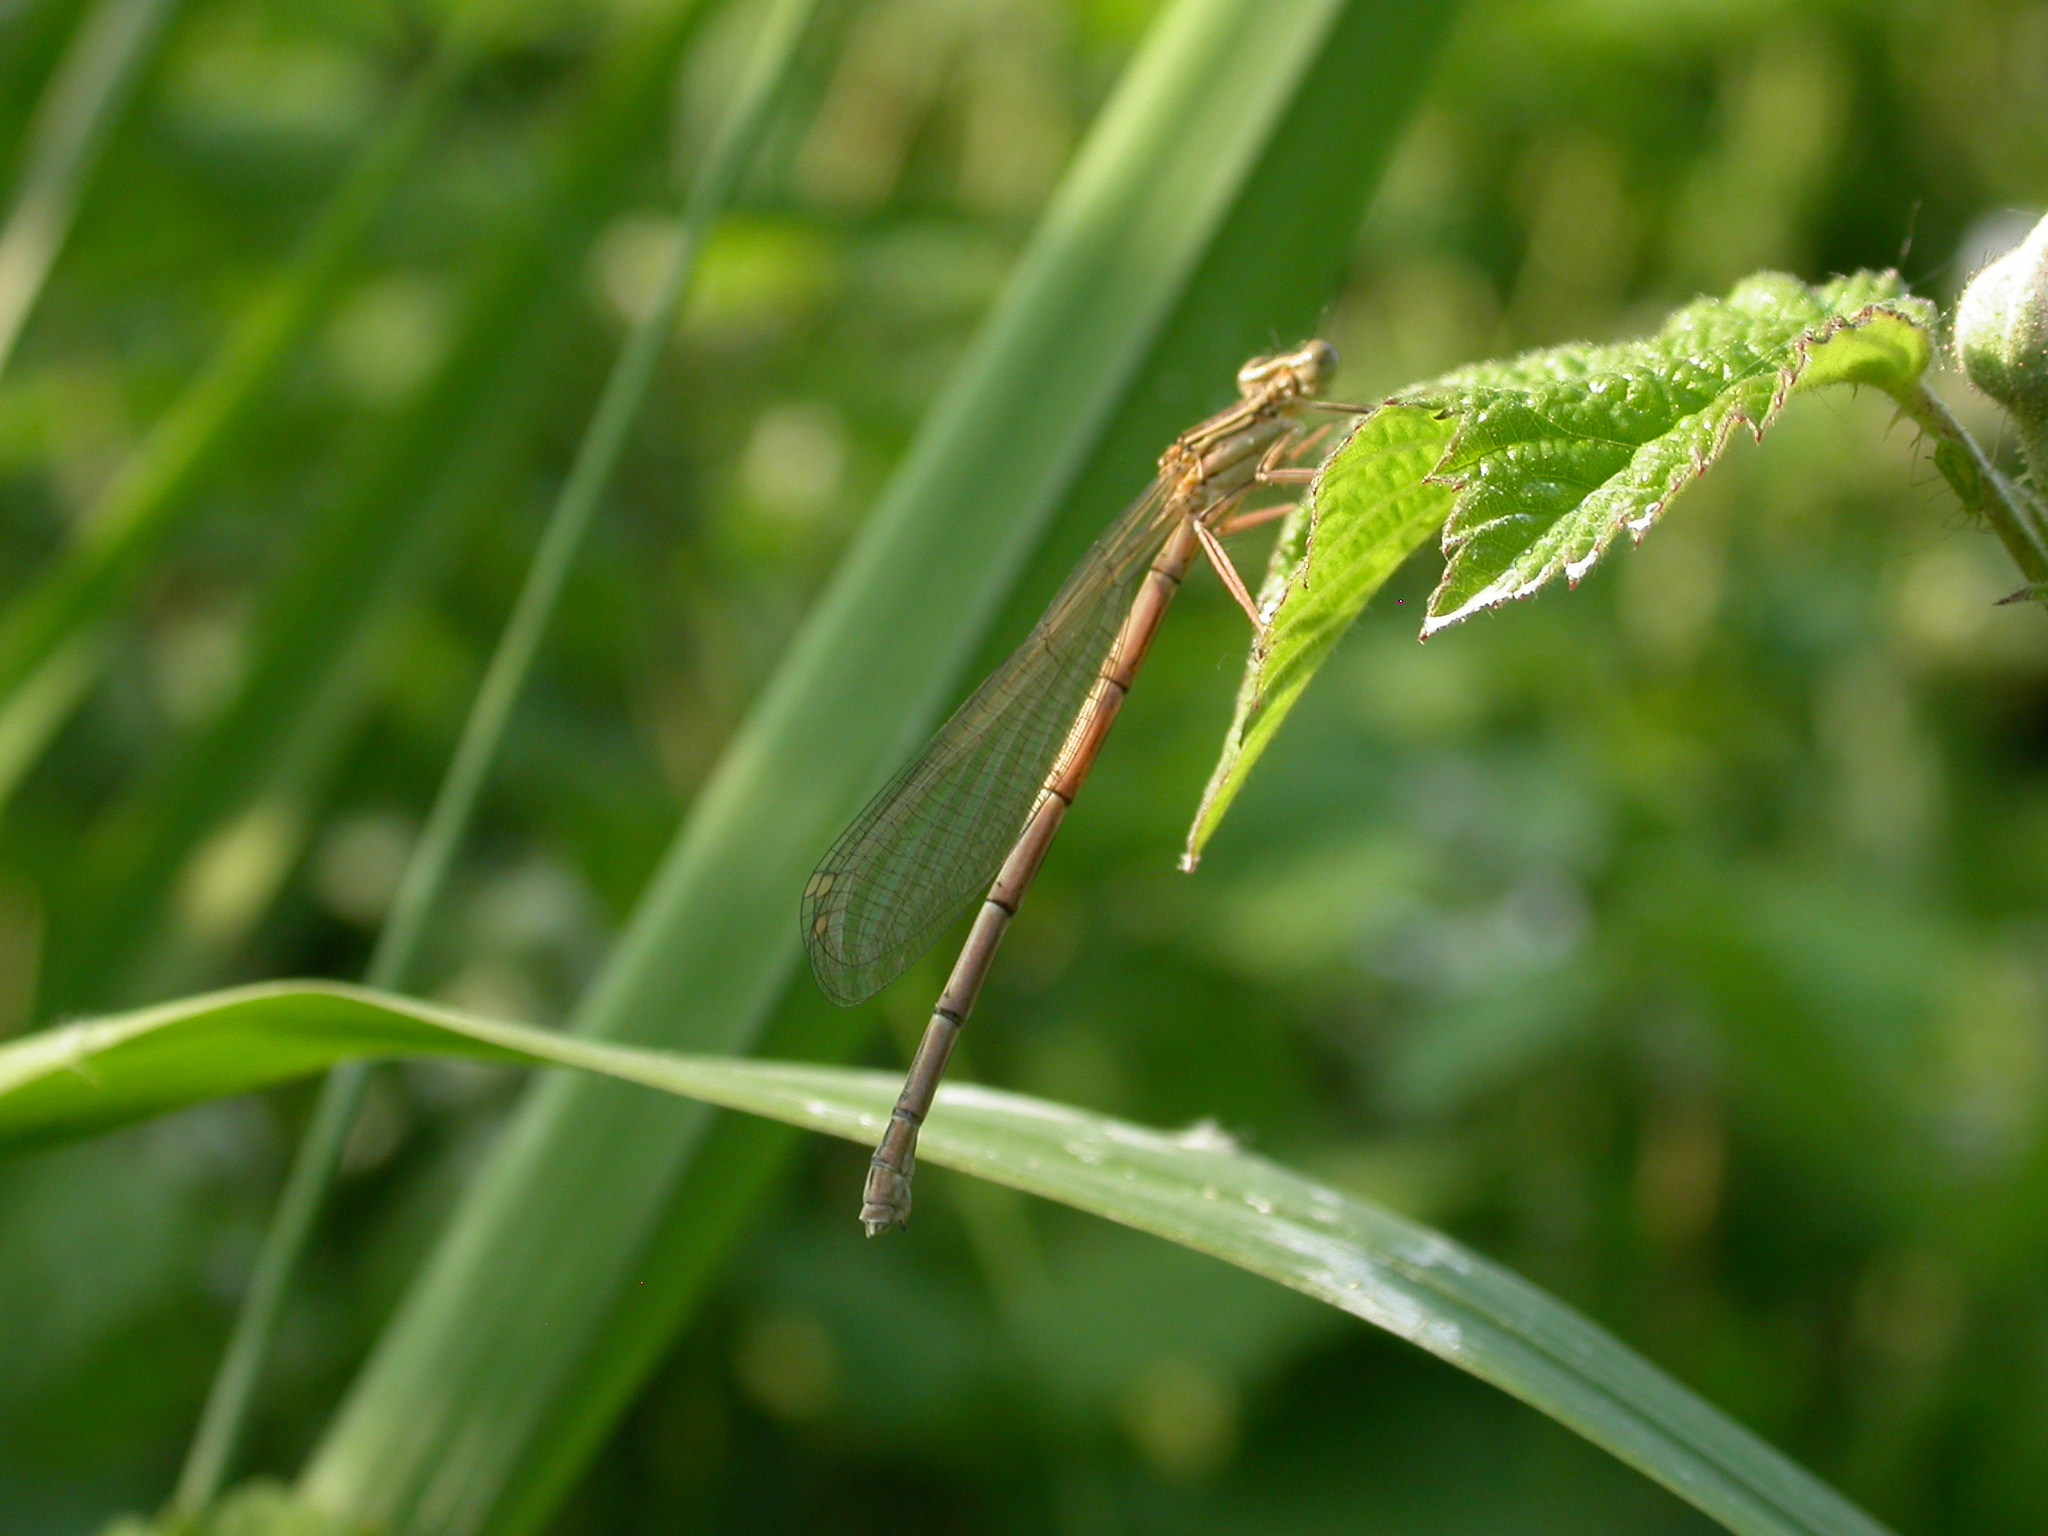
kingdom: Animalia
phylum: Arthropoda
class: Insecta
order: Odonata
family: Platycnemididae
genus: Platycnemis
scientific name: Platycnemis pennipes
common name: White-legged damselfly
